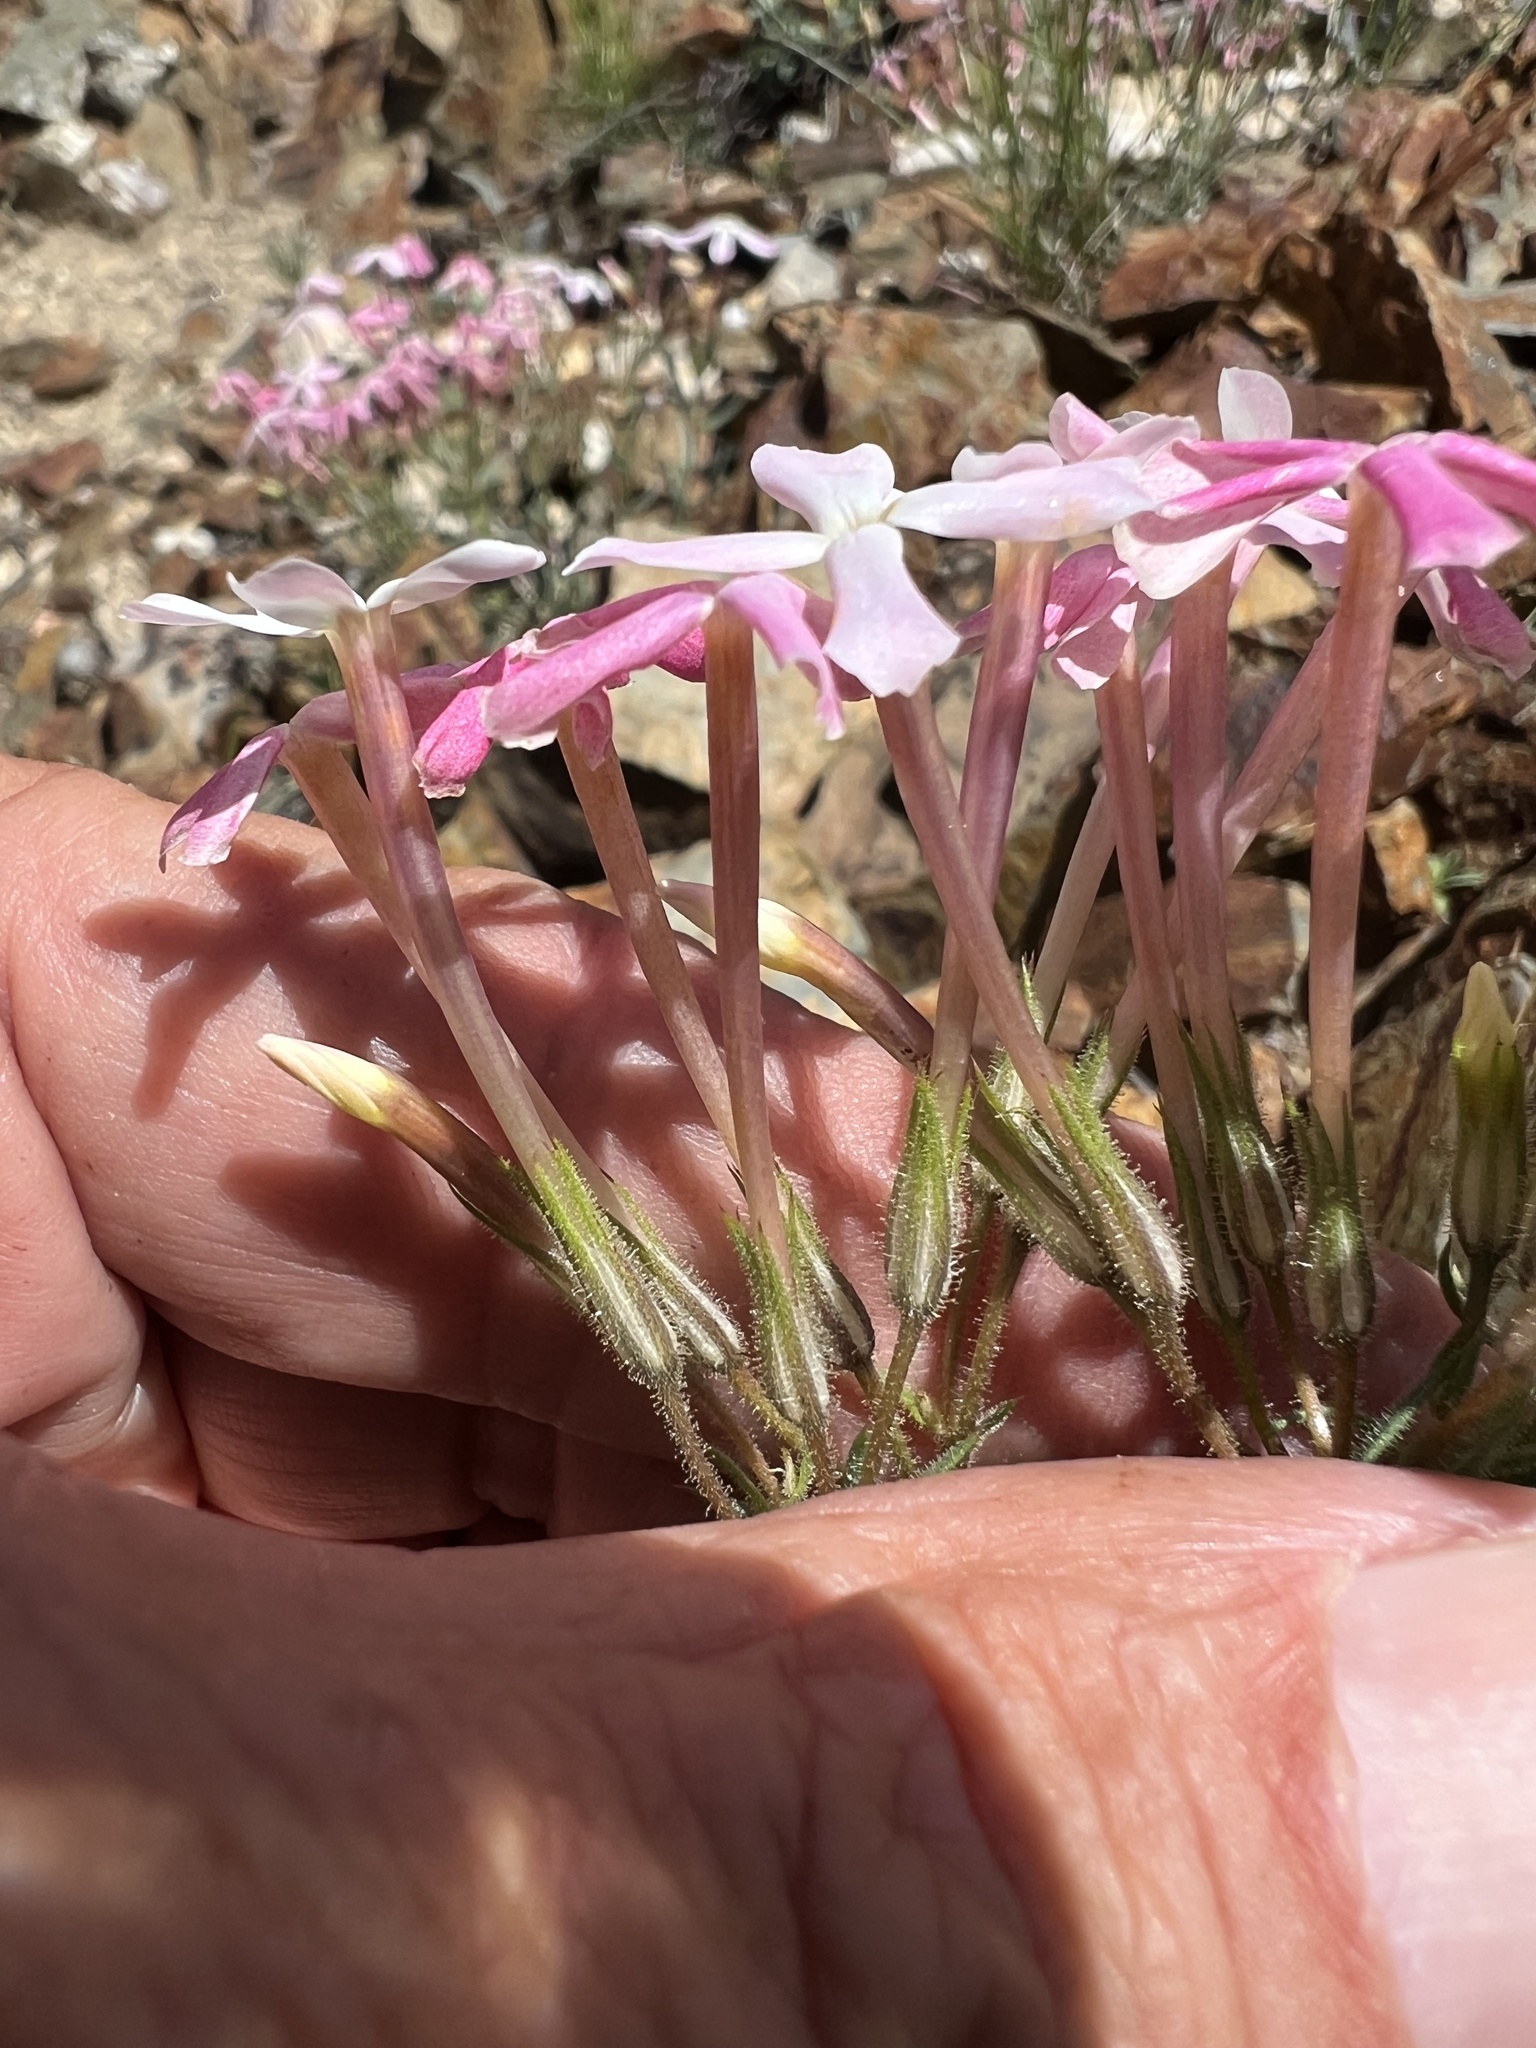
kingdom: Plantae
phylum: Tracheophyta
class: Magnoliopsida
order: Ericales
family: Polemoniaceae
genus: Phlox
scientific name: Phlox longifolia
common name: Longleaf phlox
